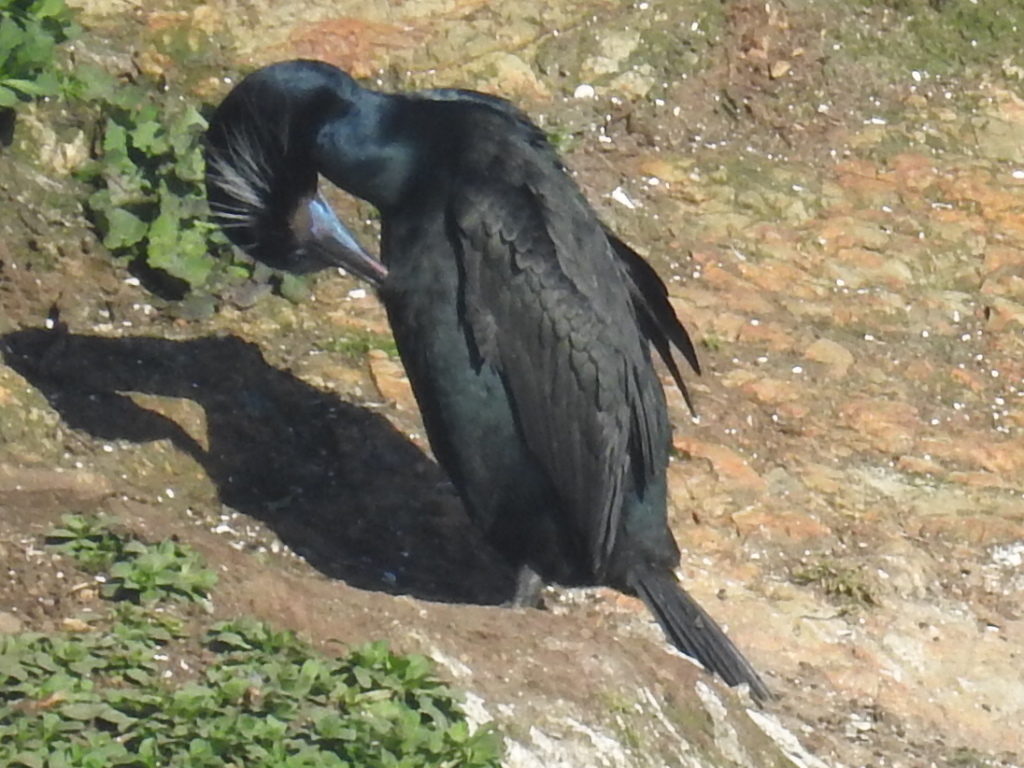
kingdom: Animalia
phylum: Chordata
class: Aves
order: Suliformes
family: Phalacrocoracidae
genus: Urile
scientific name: Urile penicillatus
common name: Brandt's cormorant
